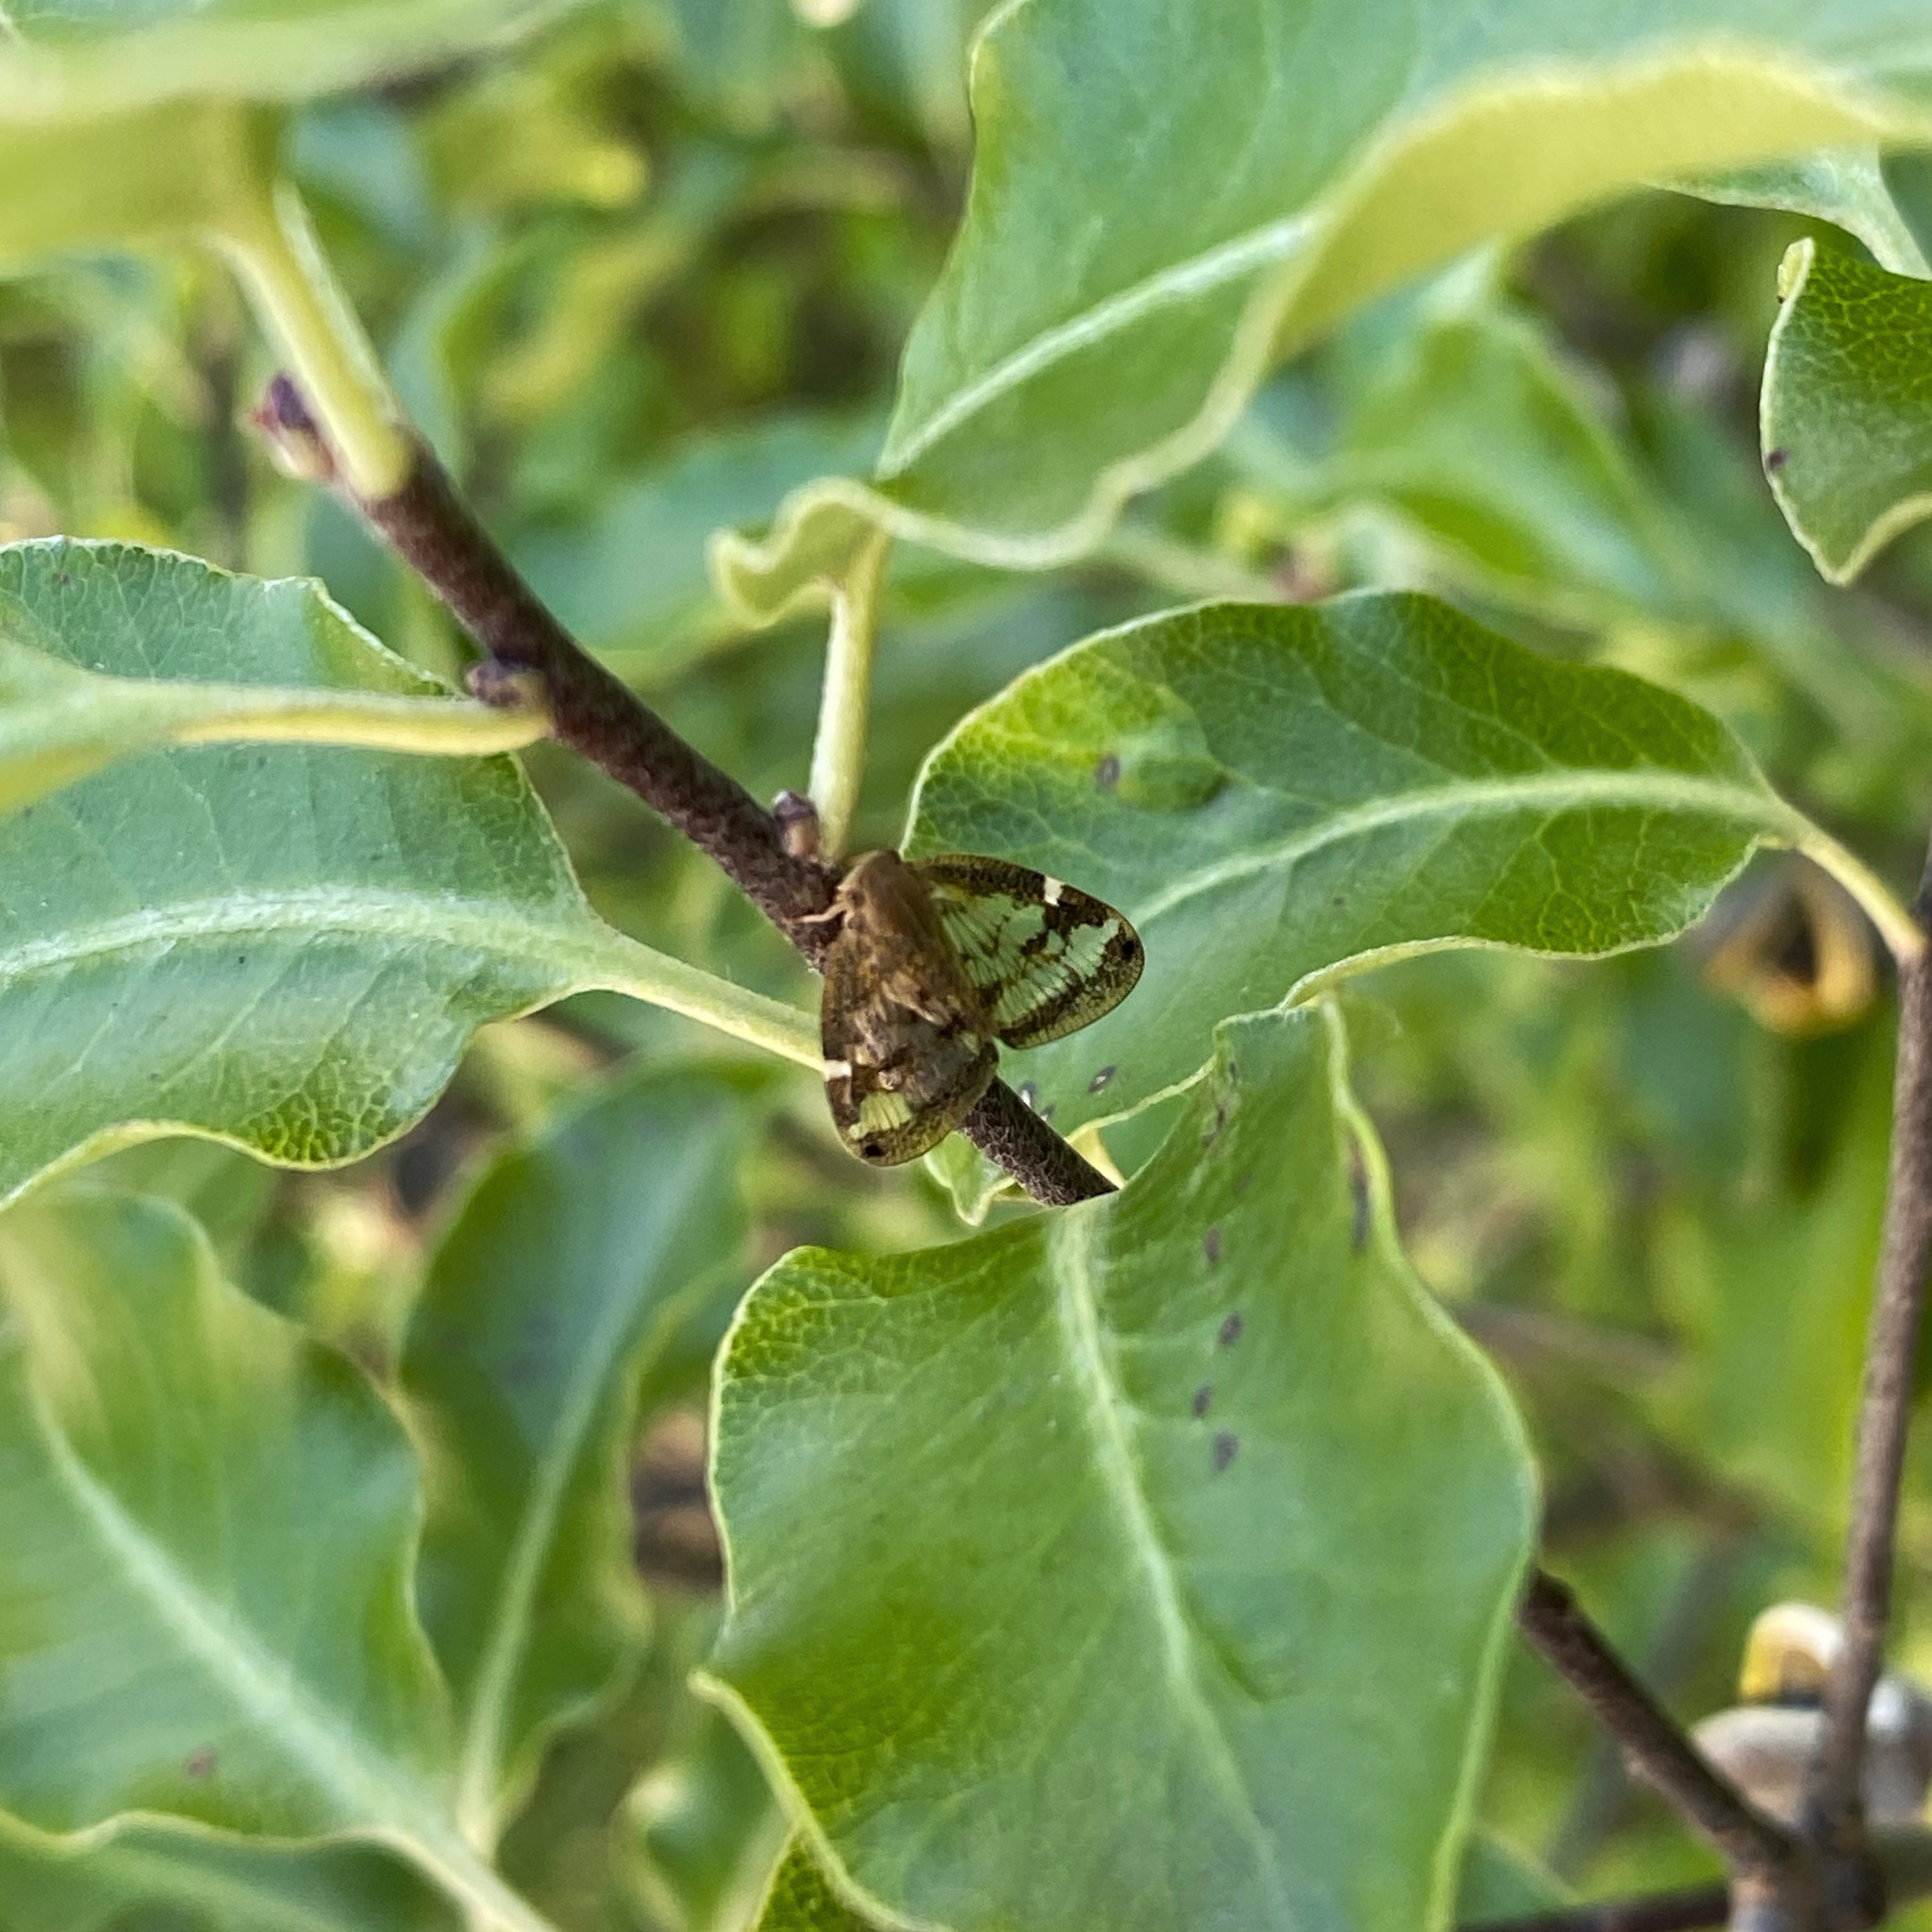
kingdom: Animalia
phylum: Arthropoda
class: Insecta
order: Hemiptera
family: Ricaniidae
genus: Scolypopa
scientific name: Scolypopa australis
